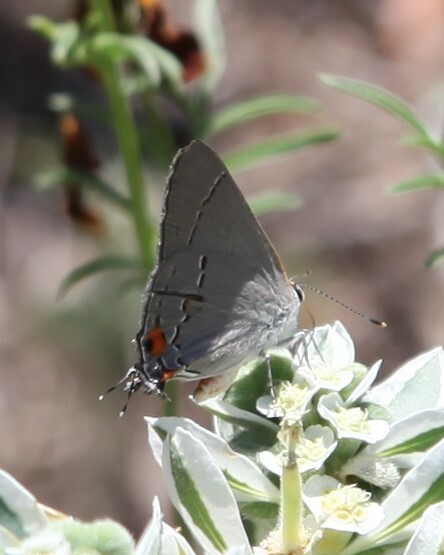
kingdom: Animalia
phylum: Arthropoda
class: Insecta
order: Lepidoptera
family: Lycaenidae
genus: Strymon
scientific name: Strymon melinus
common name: Gray hairstreak
